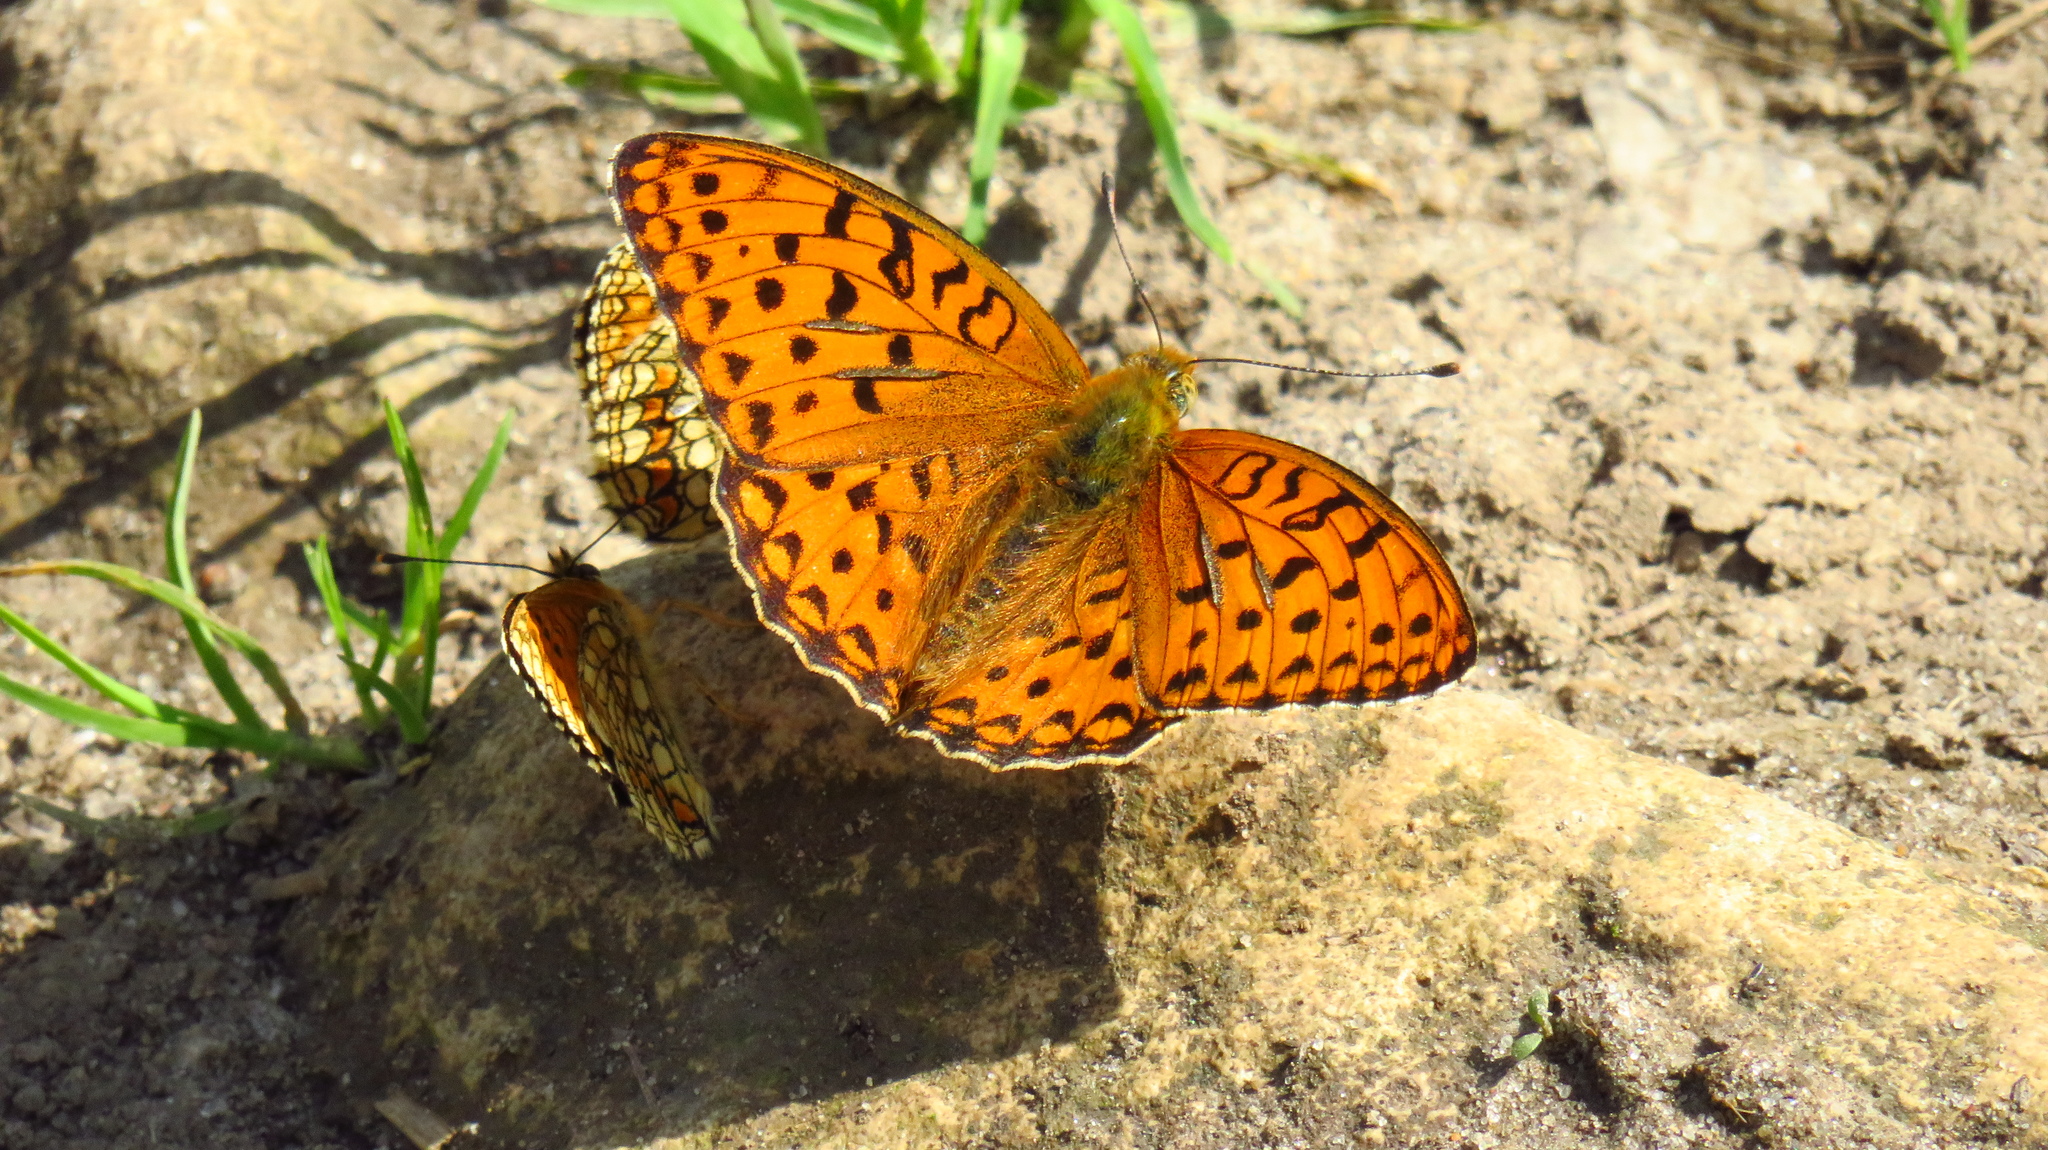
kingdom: Animalia
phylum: Arthropoda
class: Insecta
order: Lepidoptera
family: Nymphalidae
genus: Fabriciana
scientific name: Fabriciana adippe
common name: High brown fritillary
